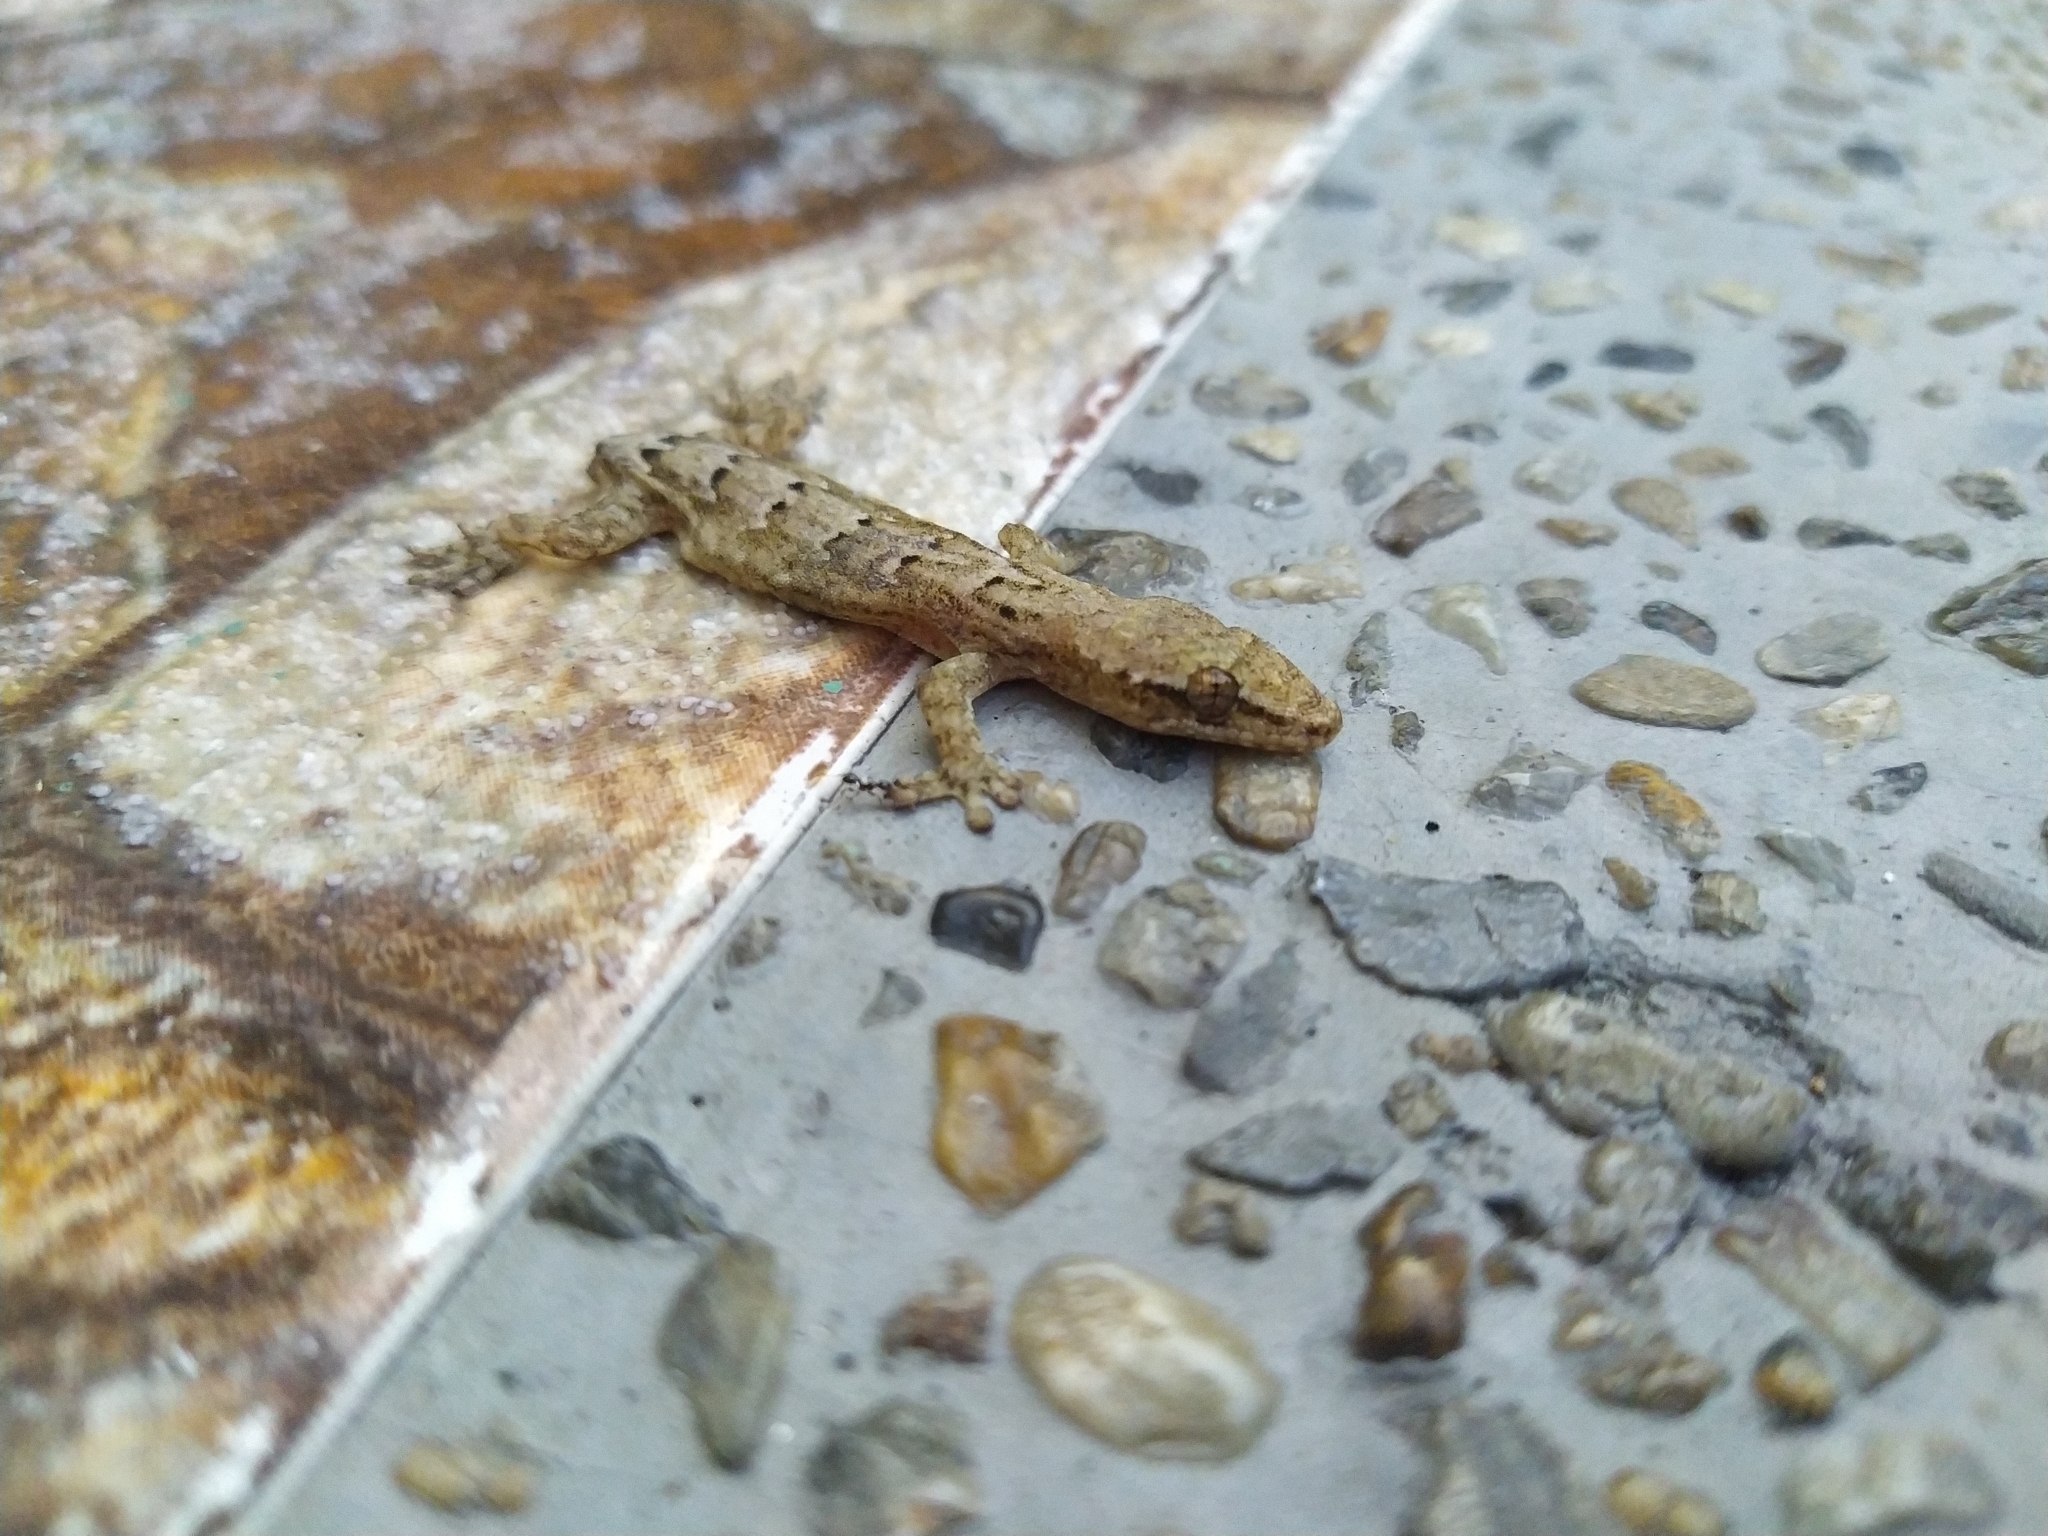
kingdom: Animalia
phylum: Chordata
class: Squamata
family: Gekkonidae
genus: Lepidodactylus
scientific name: Lepidodactylus lugubris
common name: Mourning gecko
